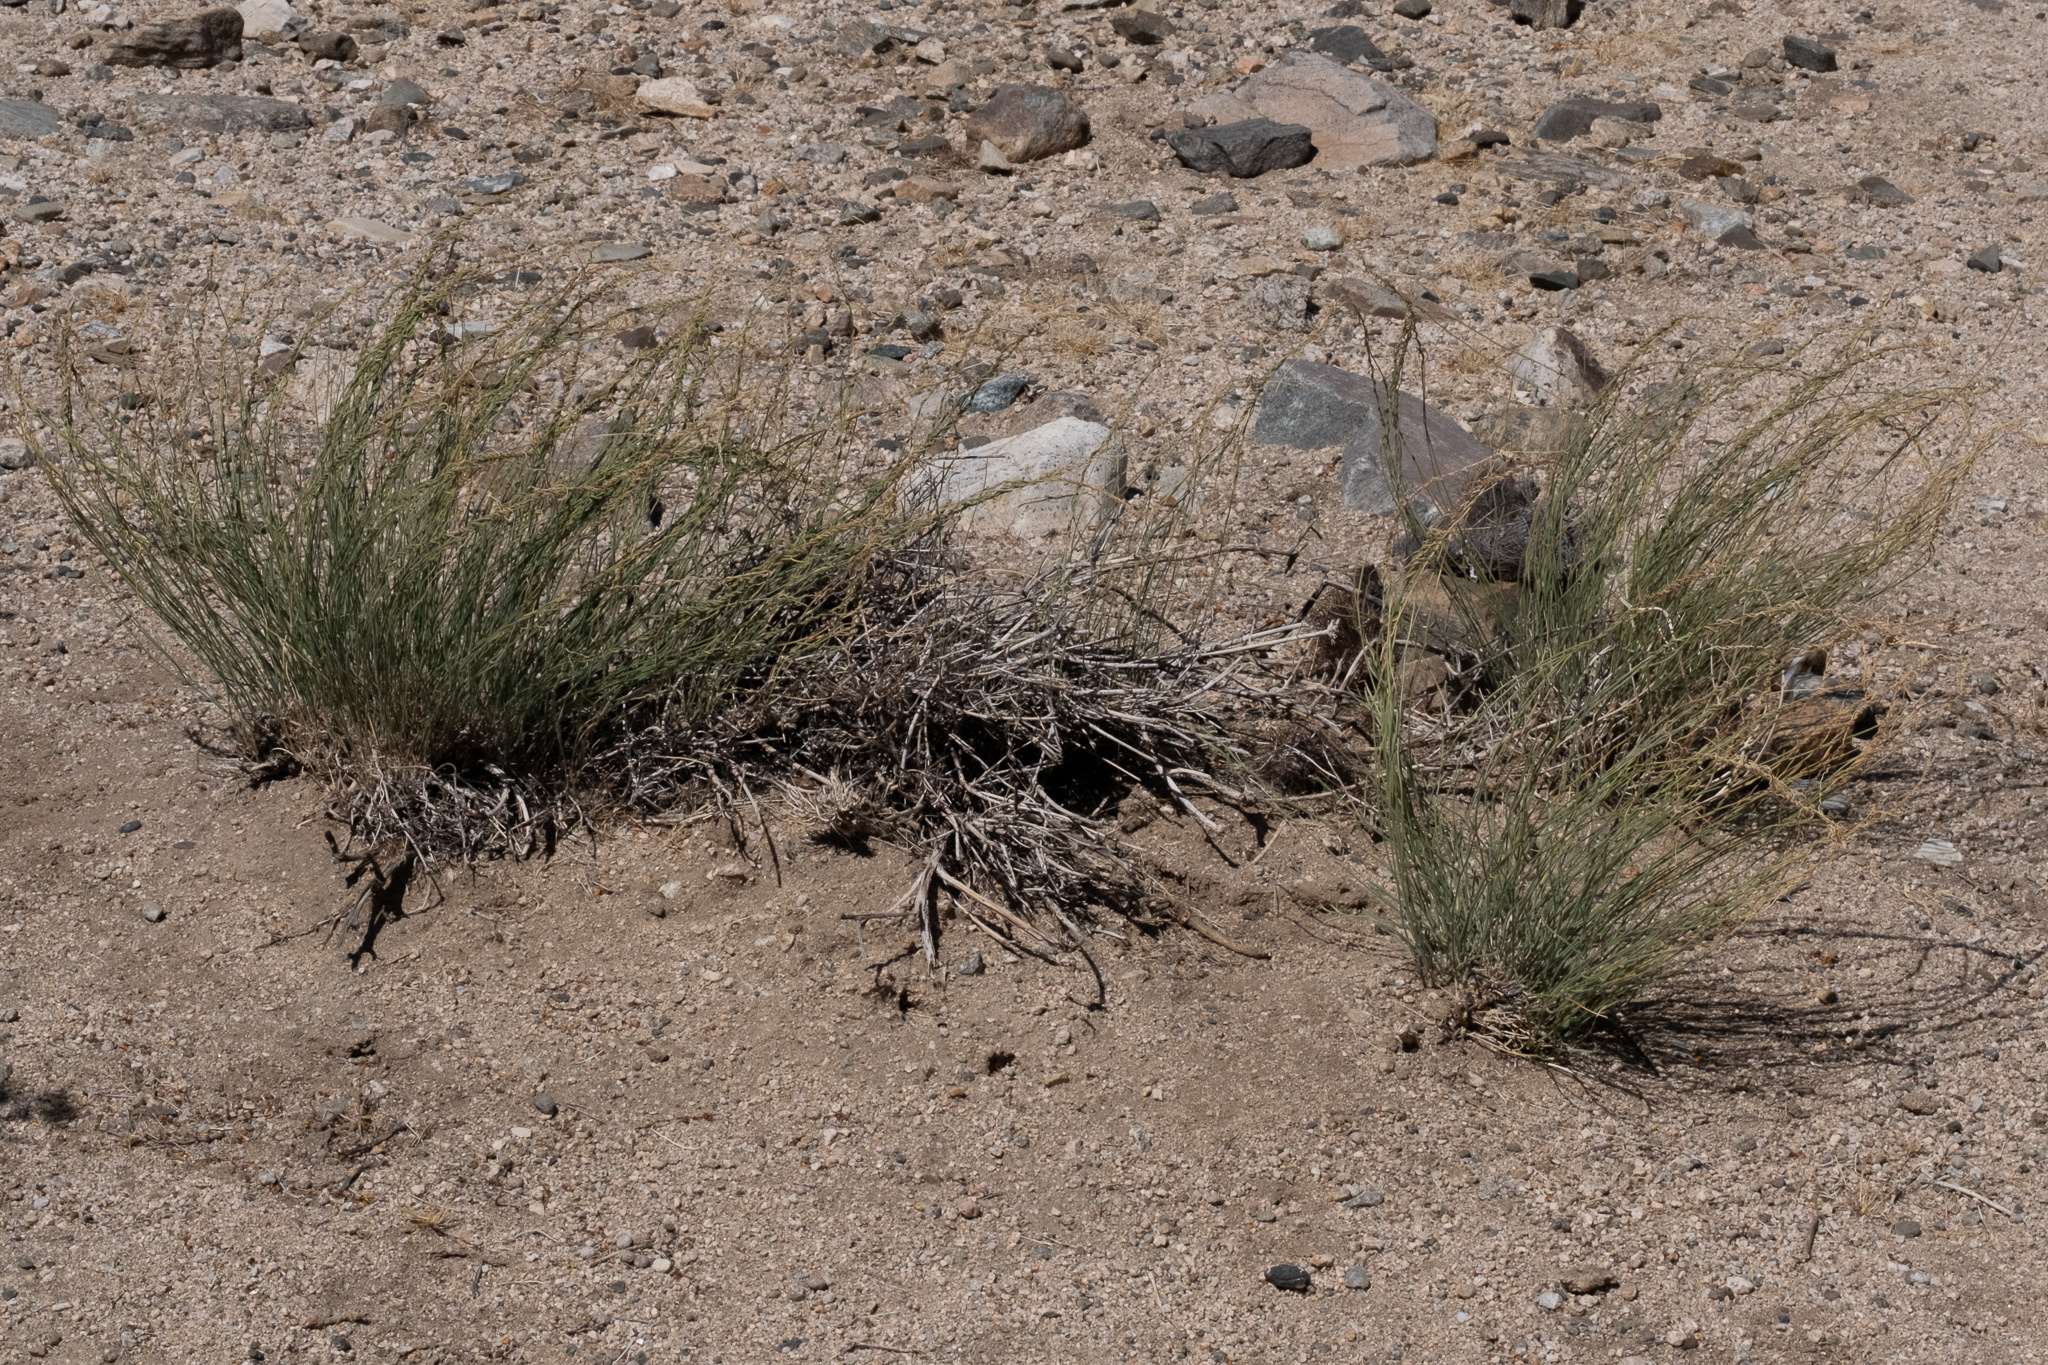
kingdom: Plantae
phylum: Tracheophyta
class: Magnoliopsida
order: Gentianales
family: Apocynaceae
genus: Funastrum
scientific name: Funastrum hirtellum
